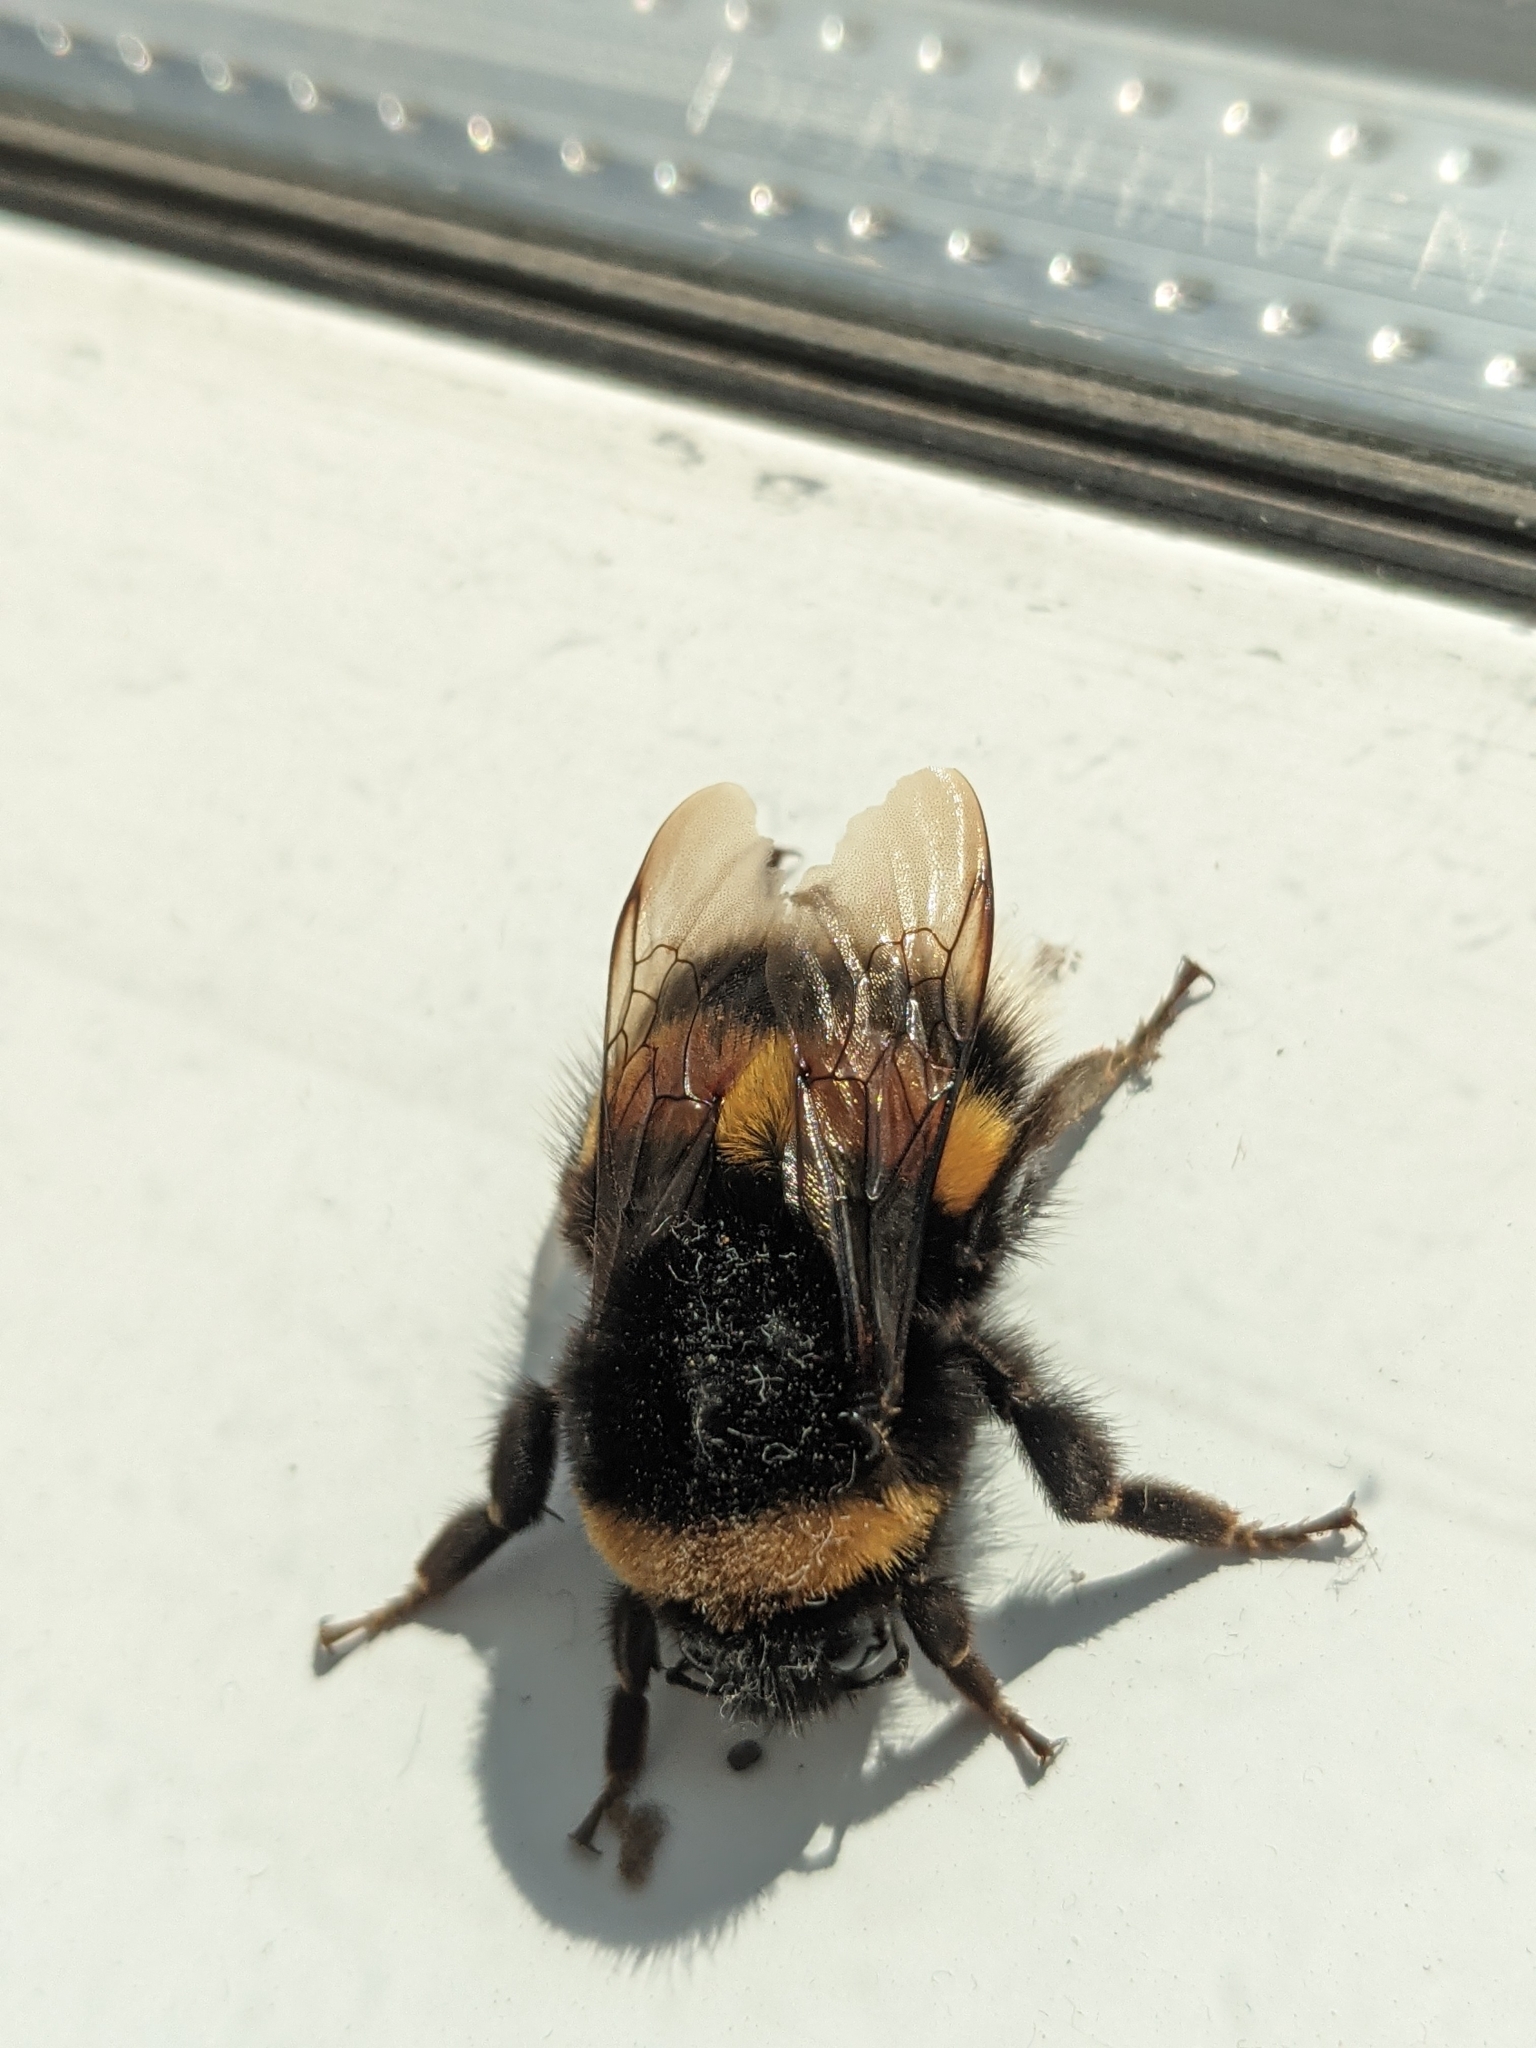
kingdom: Animalia
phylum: Arthropoda
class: Insecta
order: Hymenoptera
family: Apidae
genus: Bombus
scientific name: Bombus
